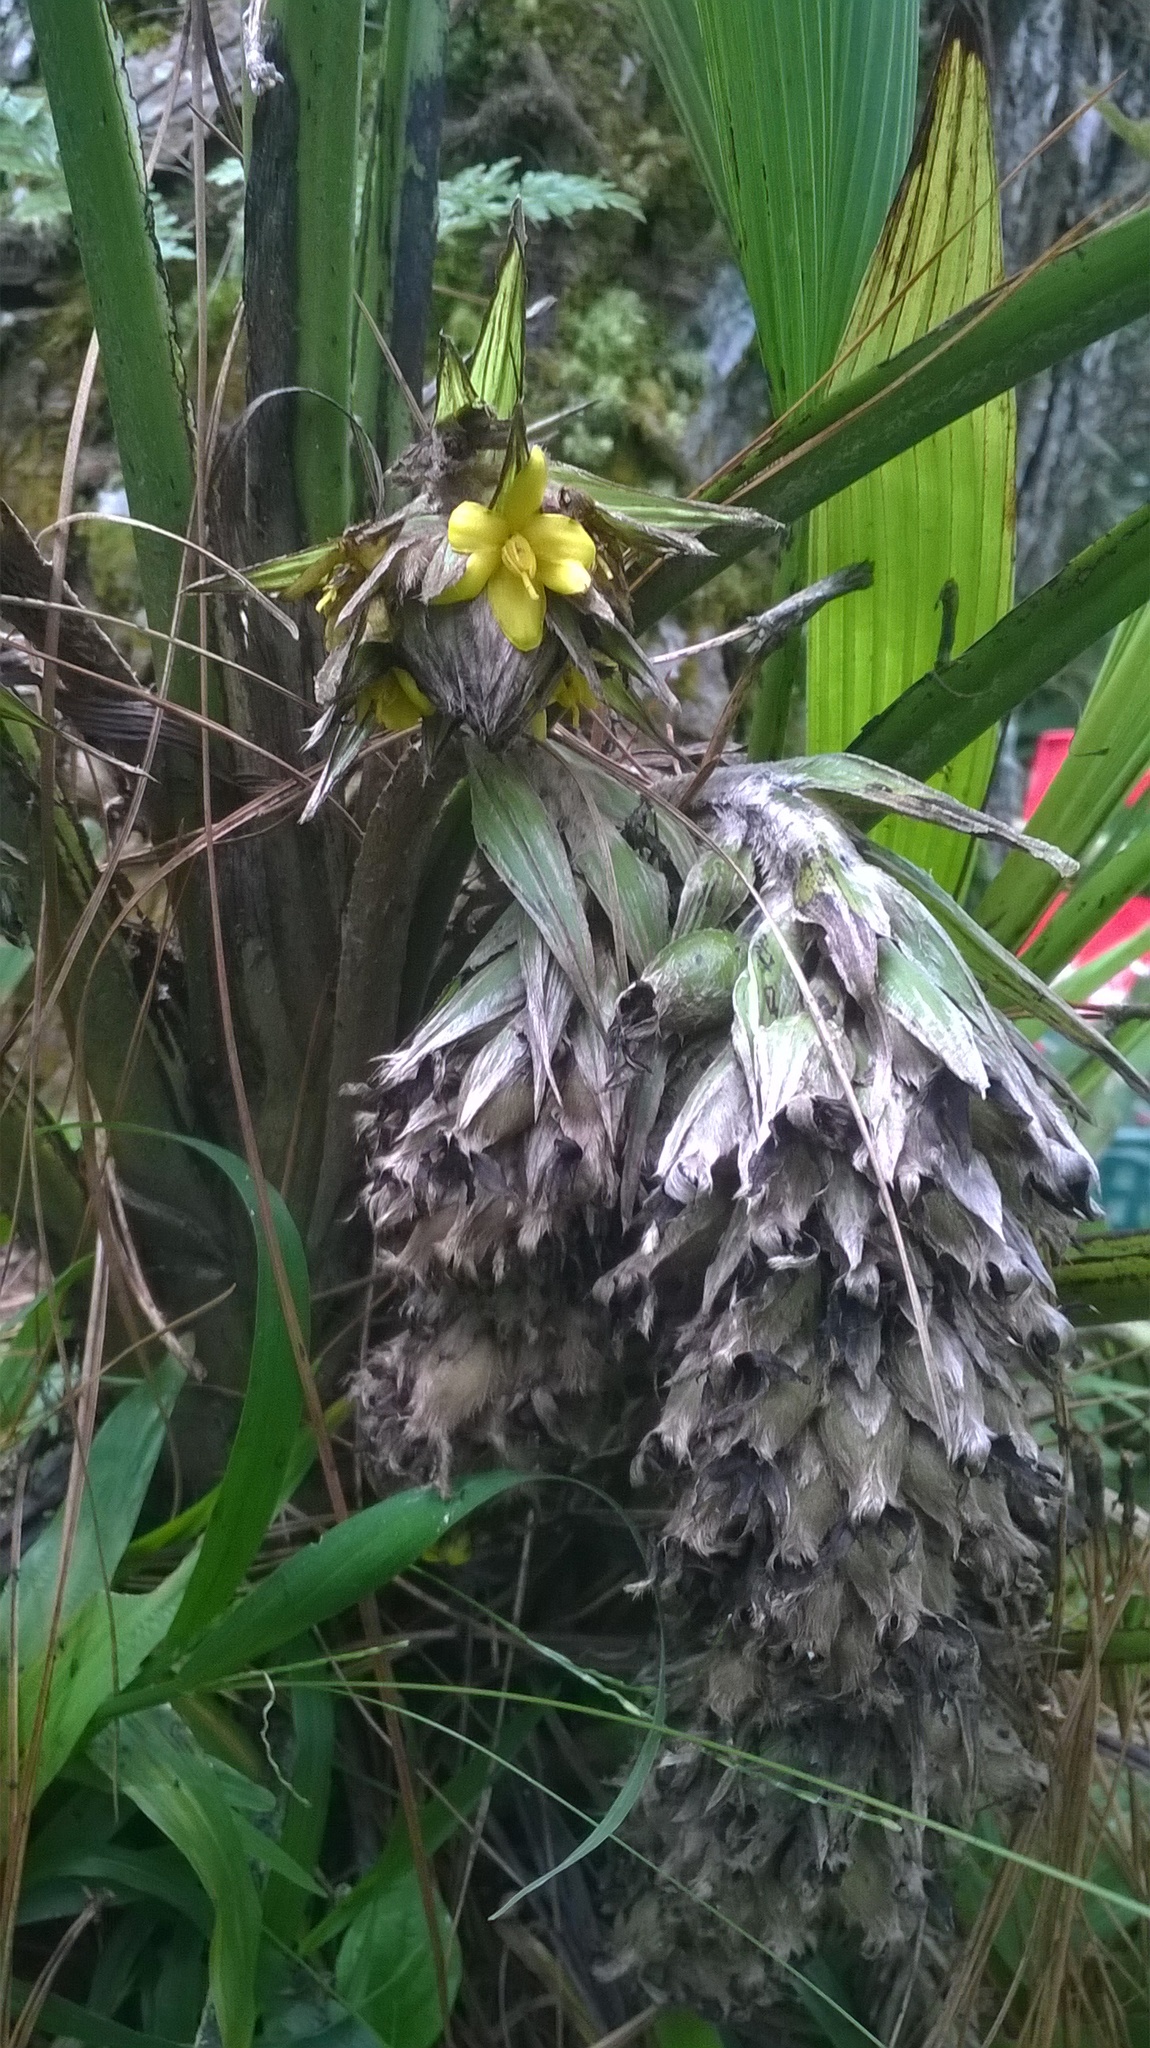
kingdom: Plantae
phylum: Tracheophyta
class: Liliopsida
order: Asparagales
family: Hypoxidaceae
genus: Curculigo
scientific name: Curculigo capitulata
